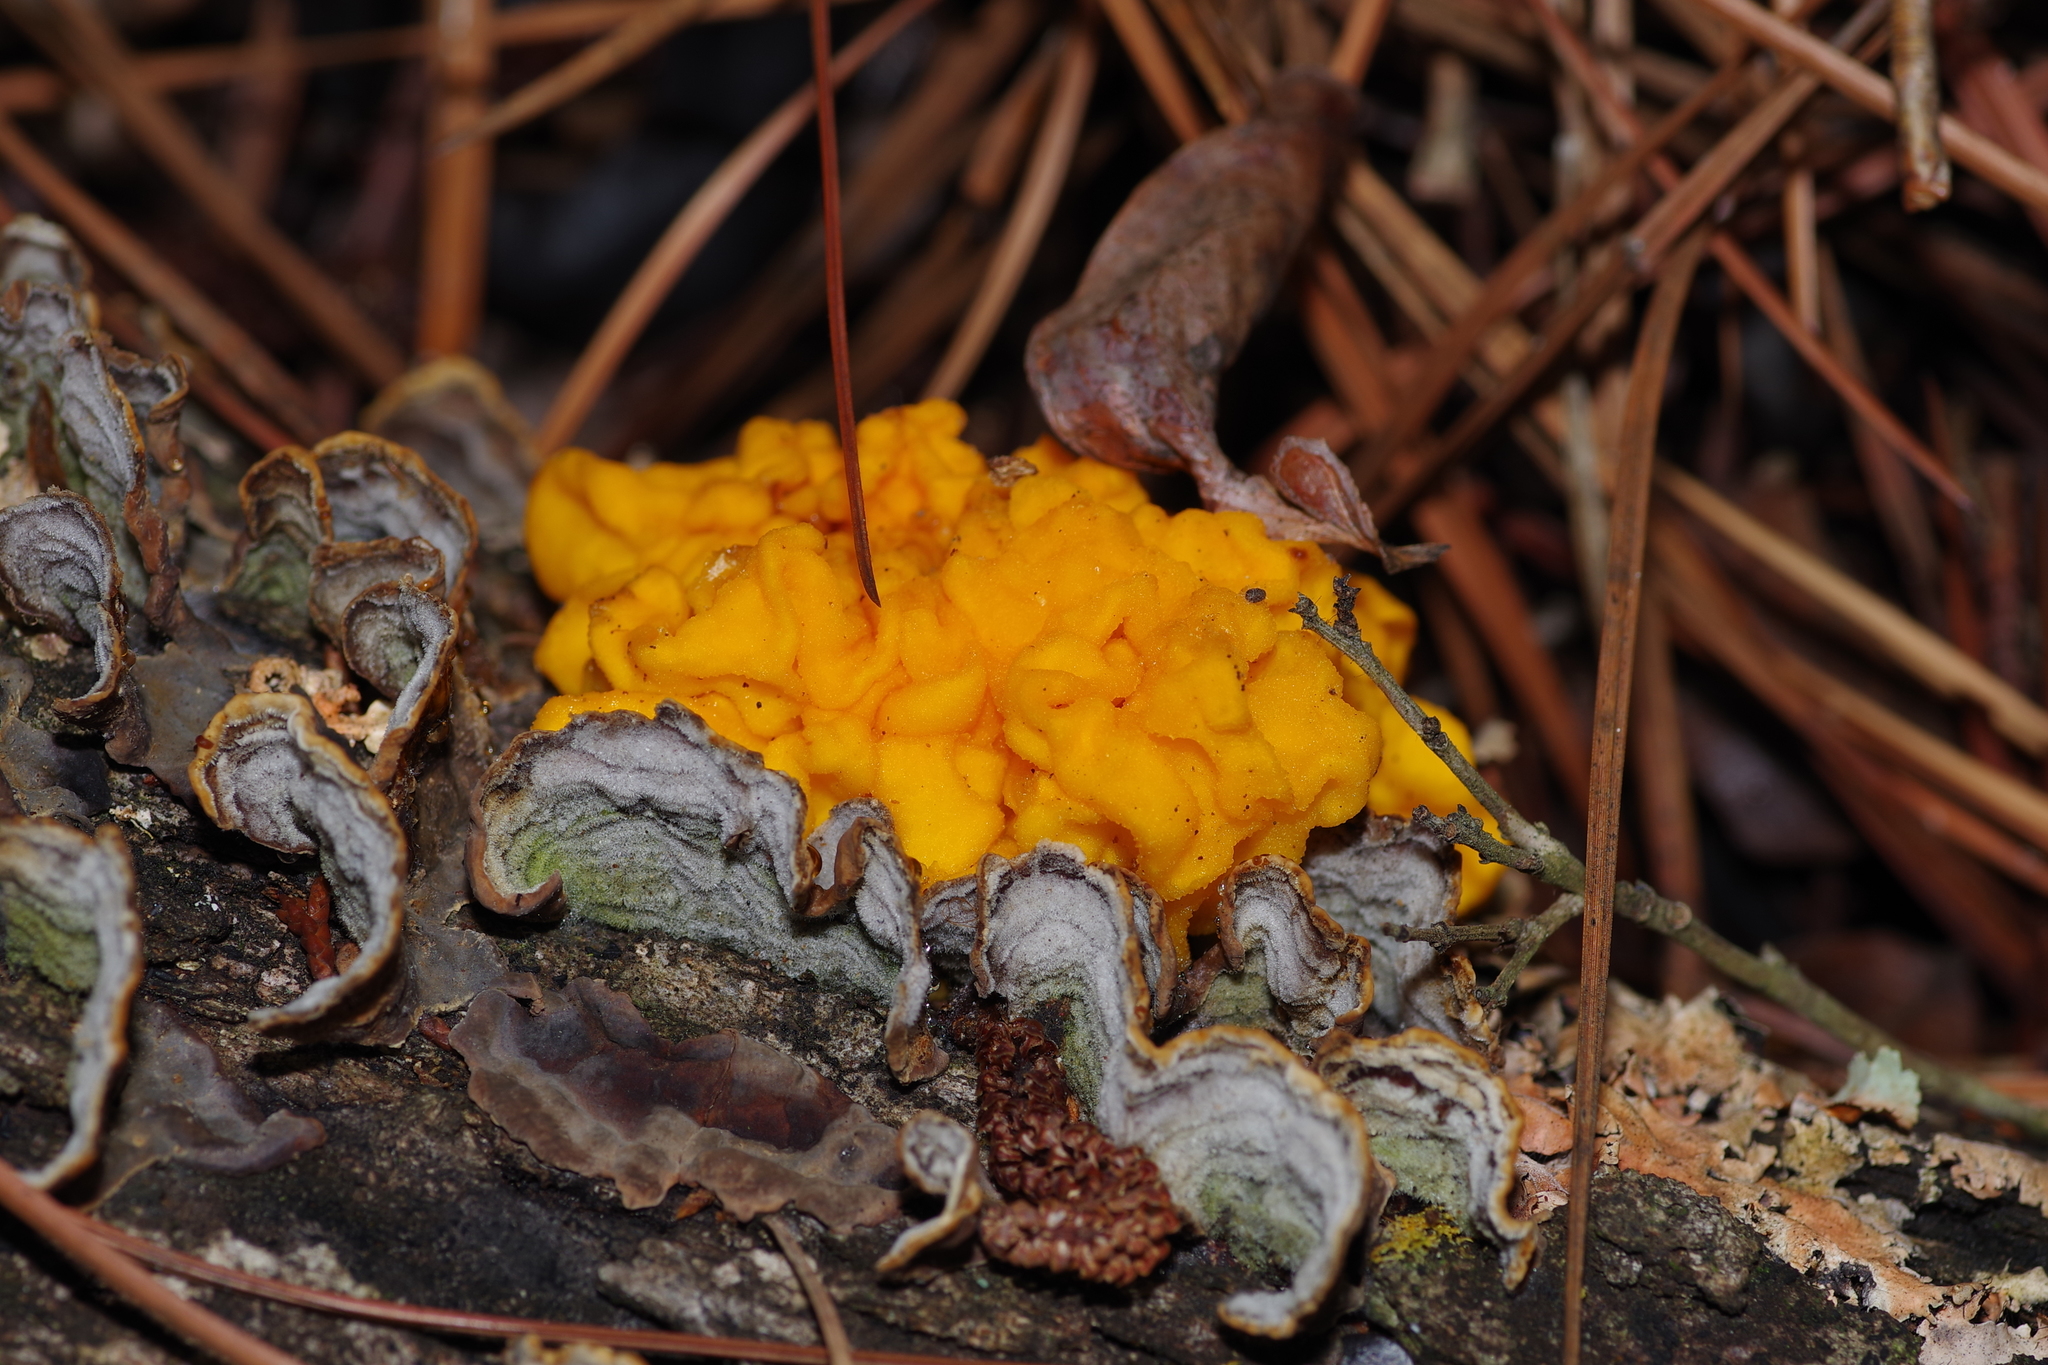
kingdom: Fungi
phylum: Basidiomycota
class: Tremellomycetes
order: Tremellales
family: Naemateliaceae
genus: Naematelia
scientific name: Naematelia aurantia
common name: Golden ear
